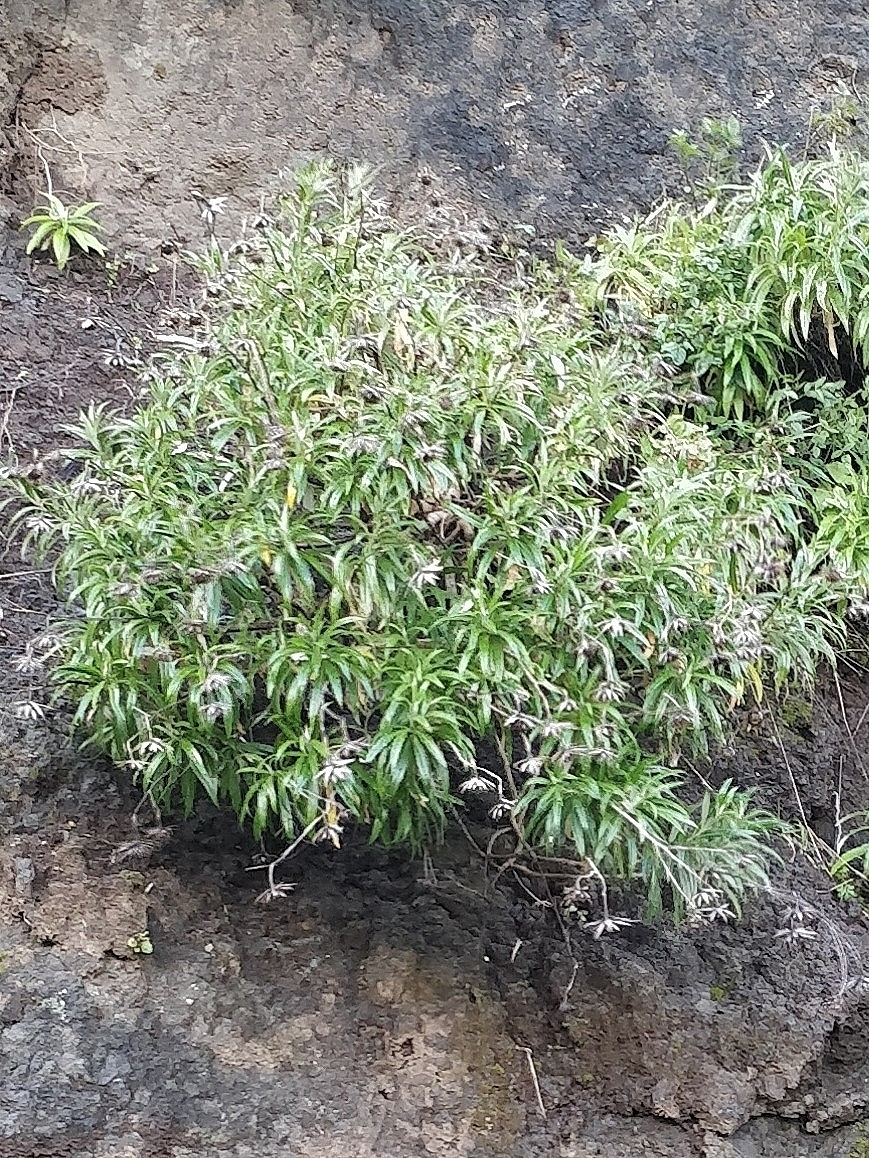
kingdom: Plantae
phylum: Tracheophyta
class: Magnoliopsida
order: Asterales
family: Asteraceae
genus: Carlina
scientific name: Carlina salicifolia
